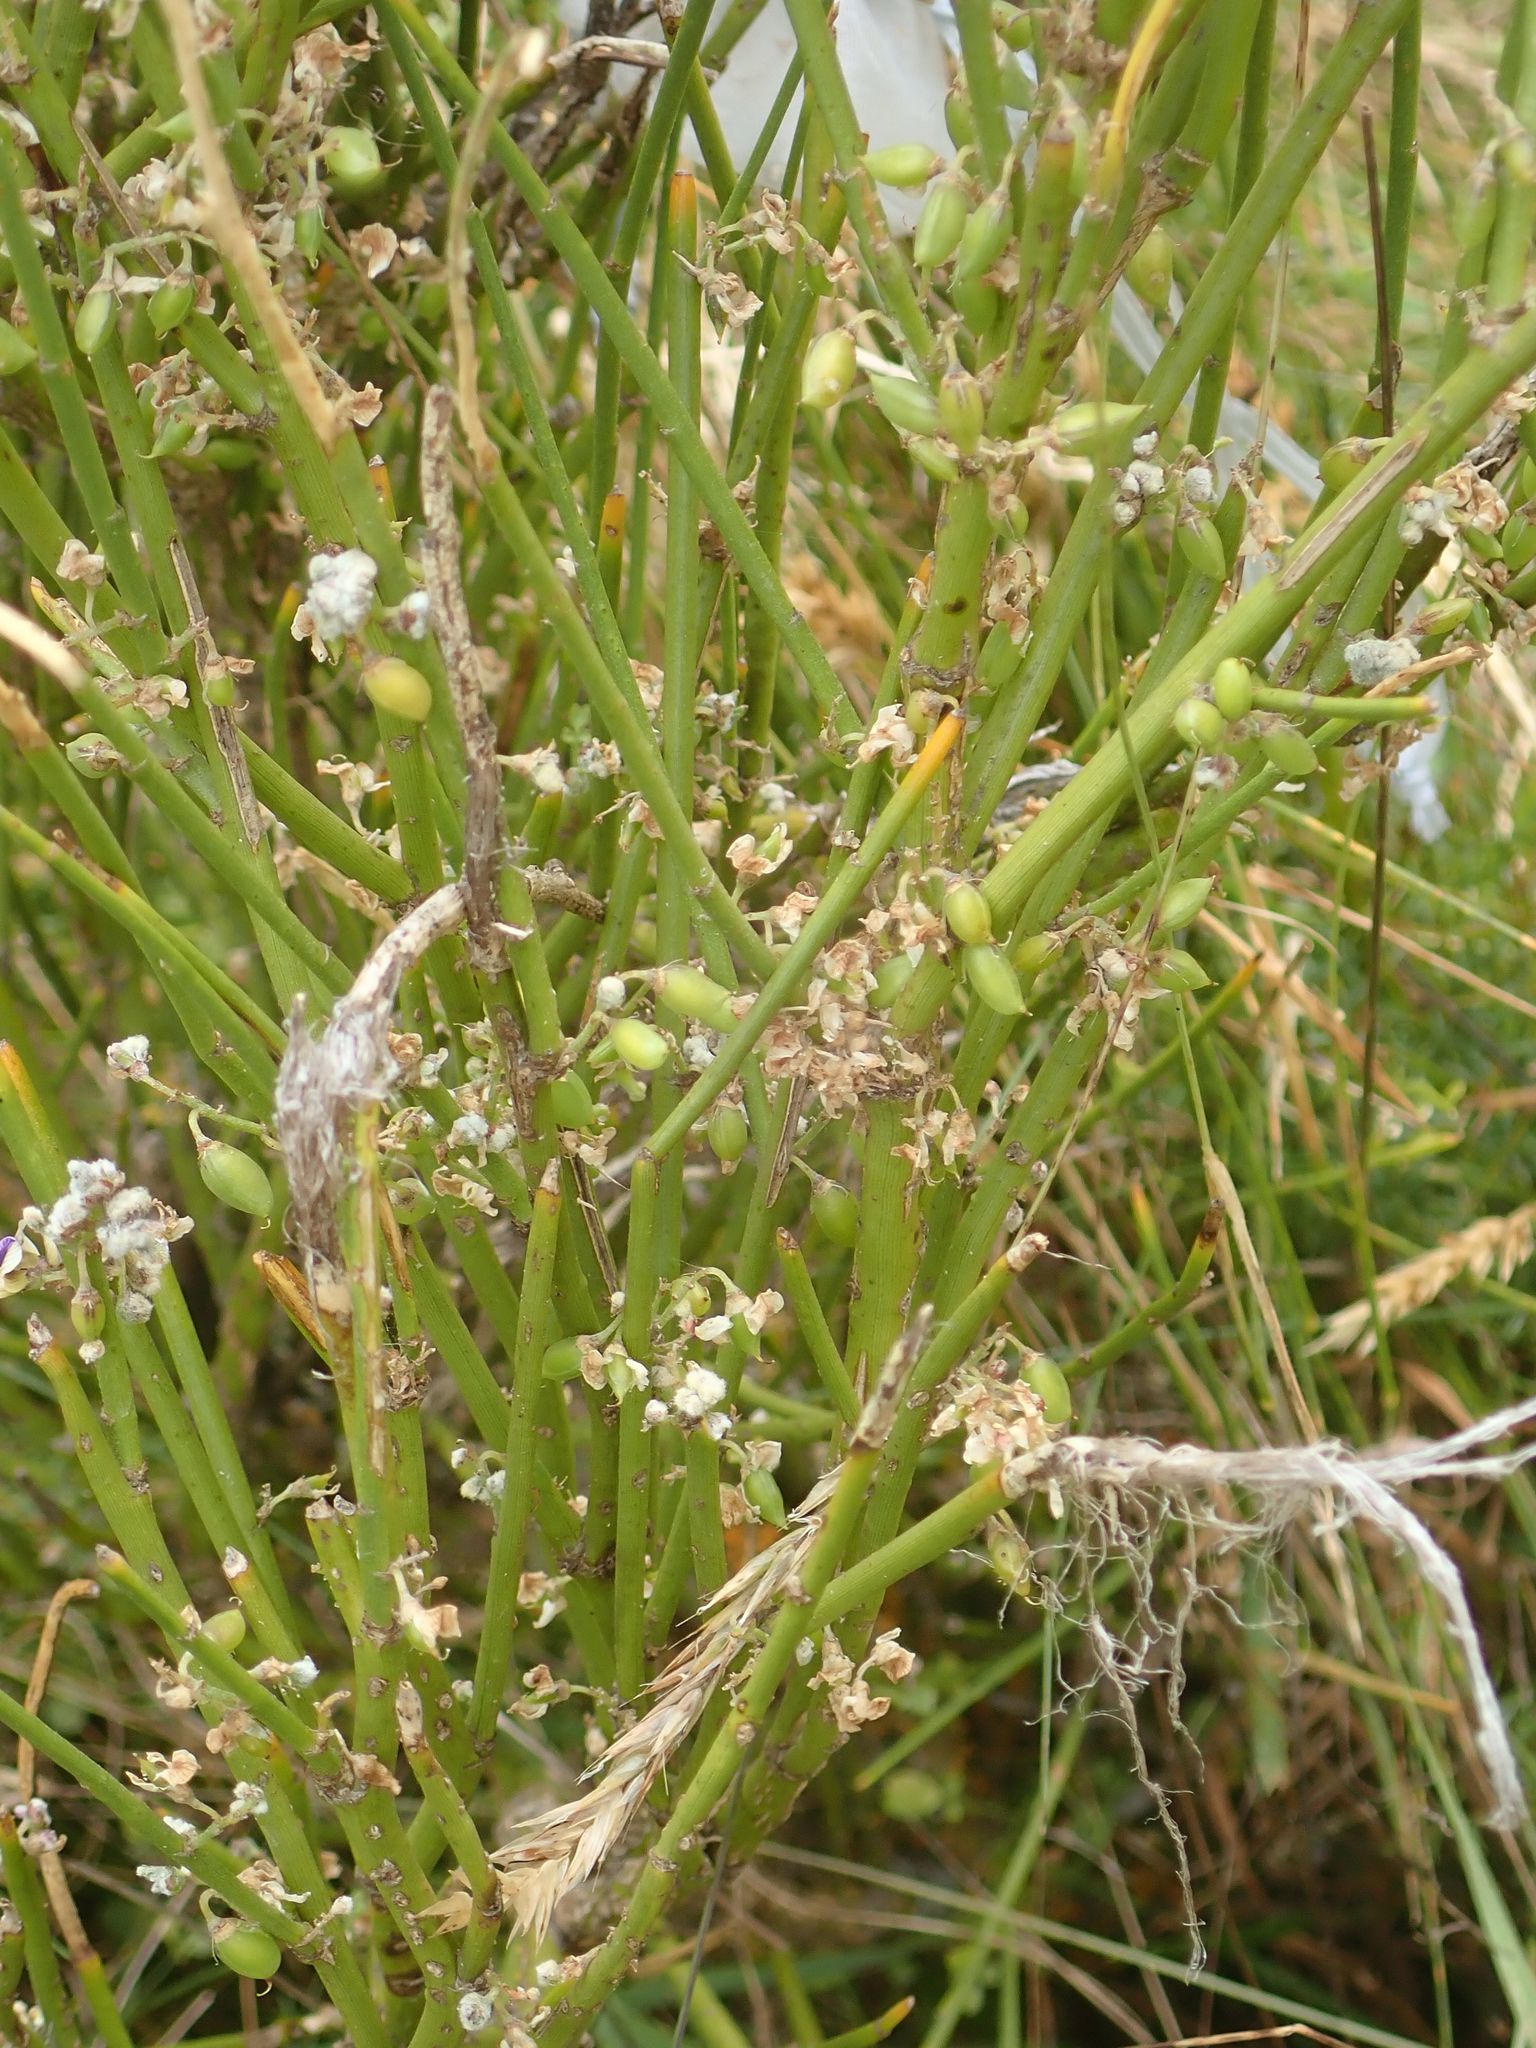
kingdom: Plantae
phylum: Tracheophyta
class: Magnoliopsida
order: Fabales
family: Fabaceae
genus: Carmichaelia
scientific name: Carmichaelia petriei
